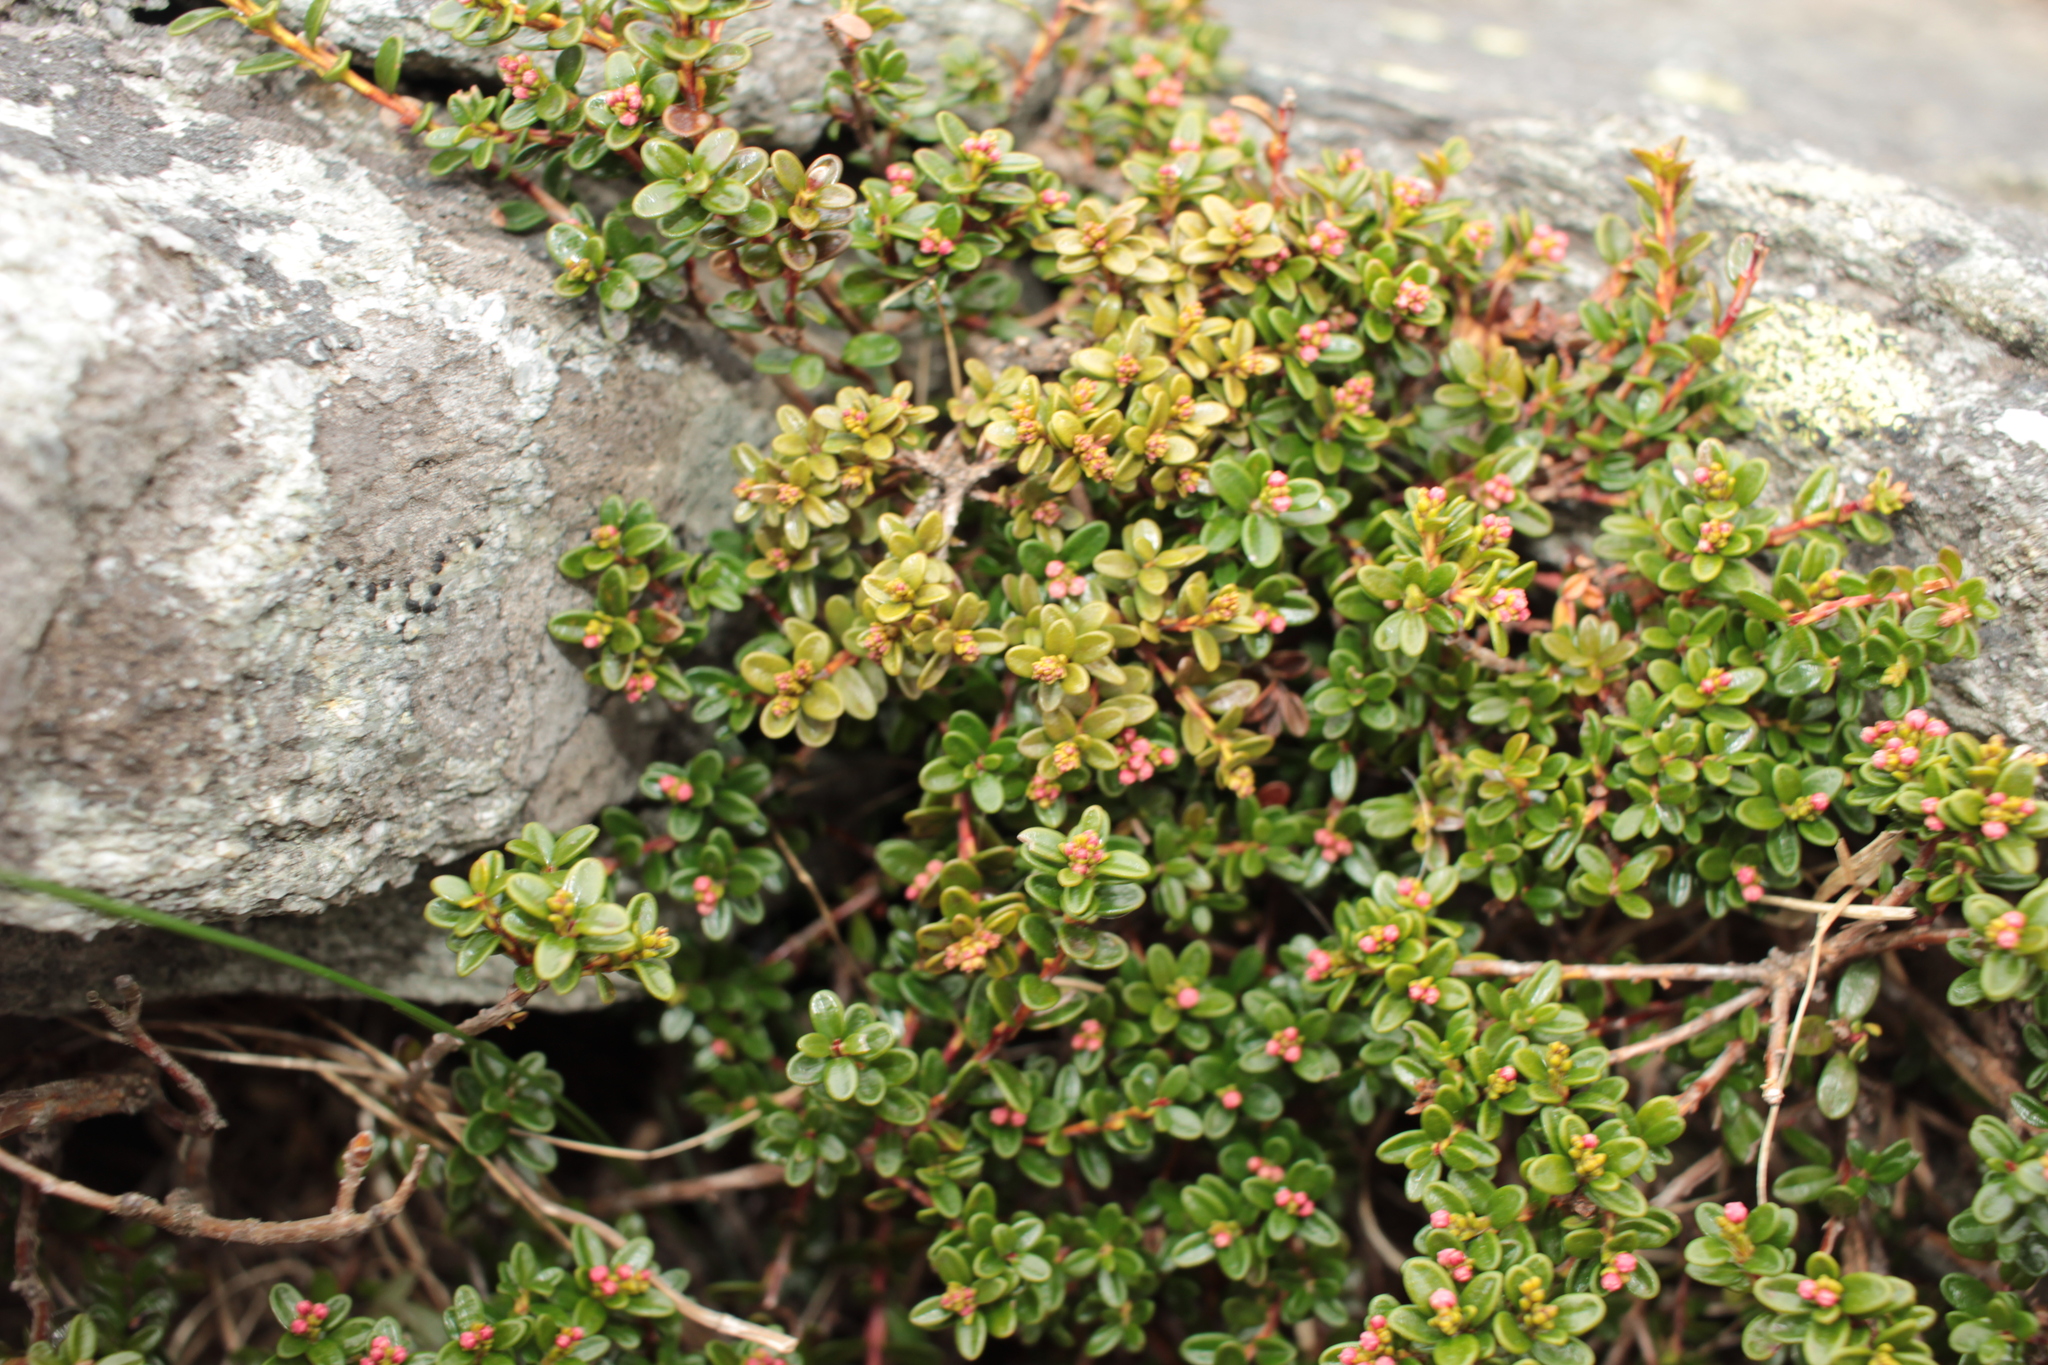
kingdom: Plantae
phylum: Tracheophyta
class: Magnoliopsida
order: Ericales
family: Ericaceae
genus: Kalmia
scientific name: Kalmia buxifolia
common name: Sandmyrtle
